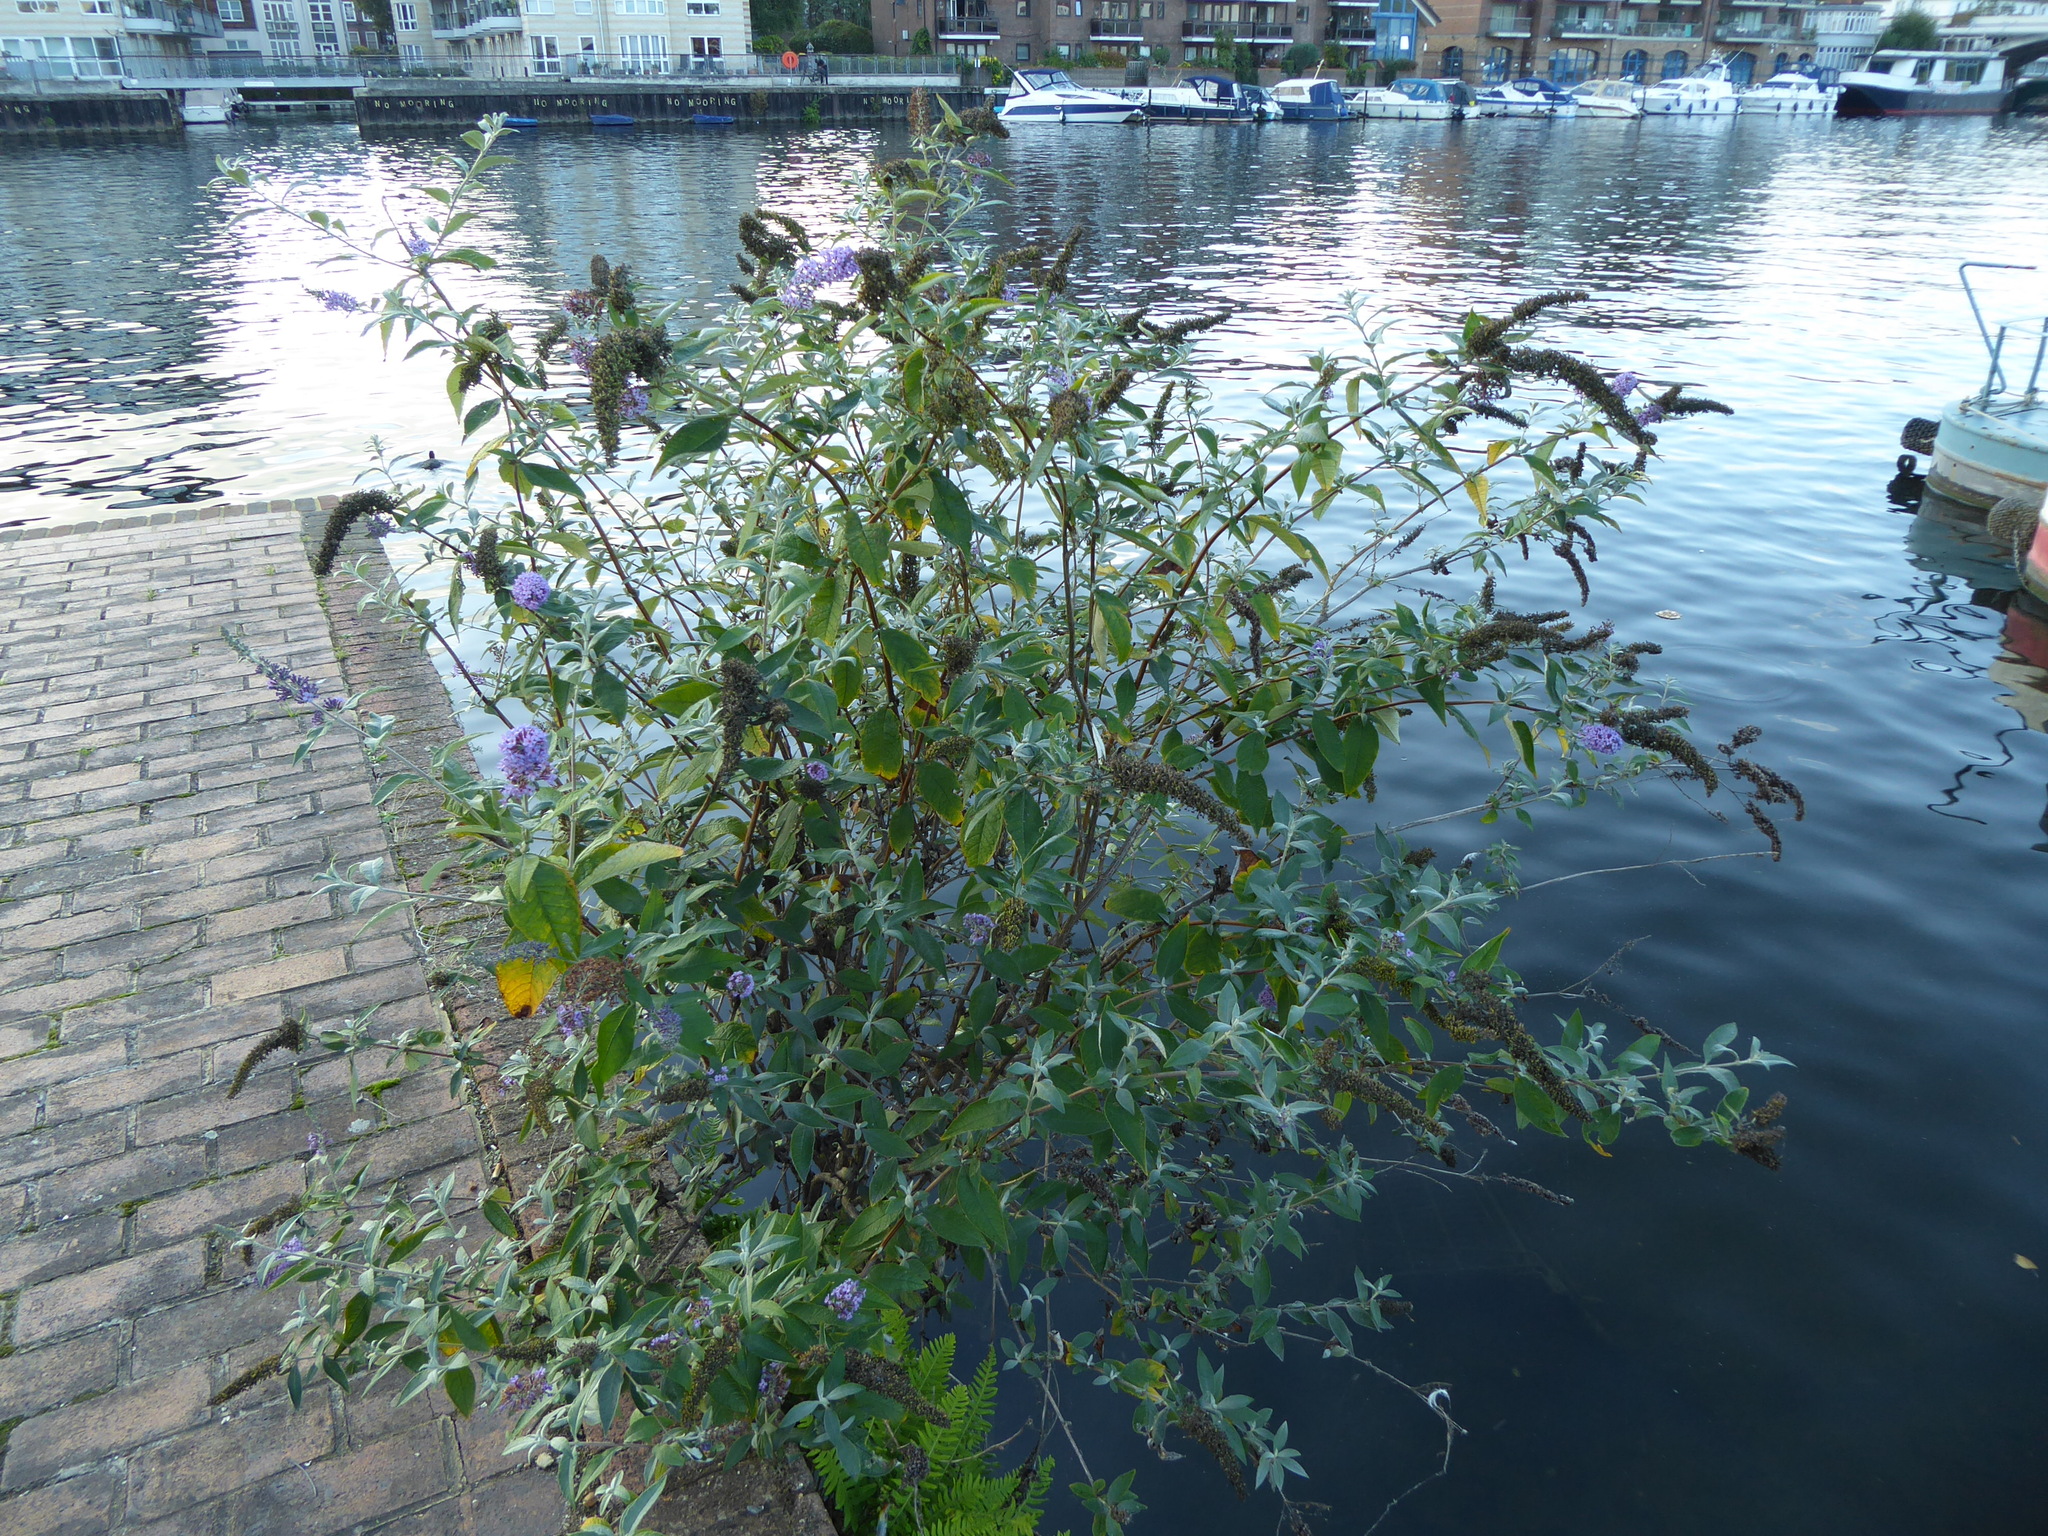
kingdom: Plantae
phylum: Tracheophyta
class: Magnoliopsida
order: Lamiales
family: Scrophulariaceae
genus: Buddleja
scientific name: Buddleja davidii
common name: Butterfly-bush
